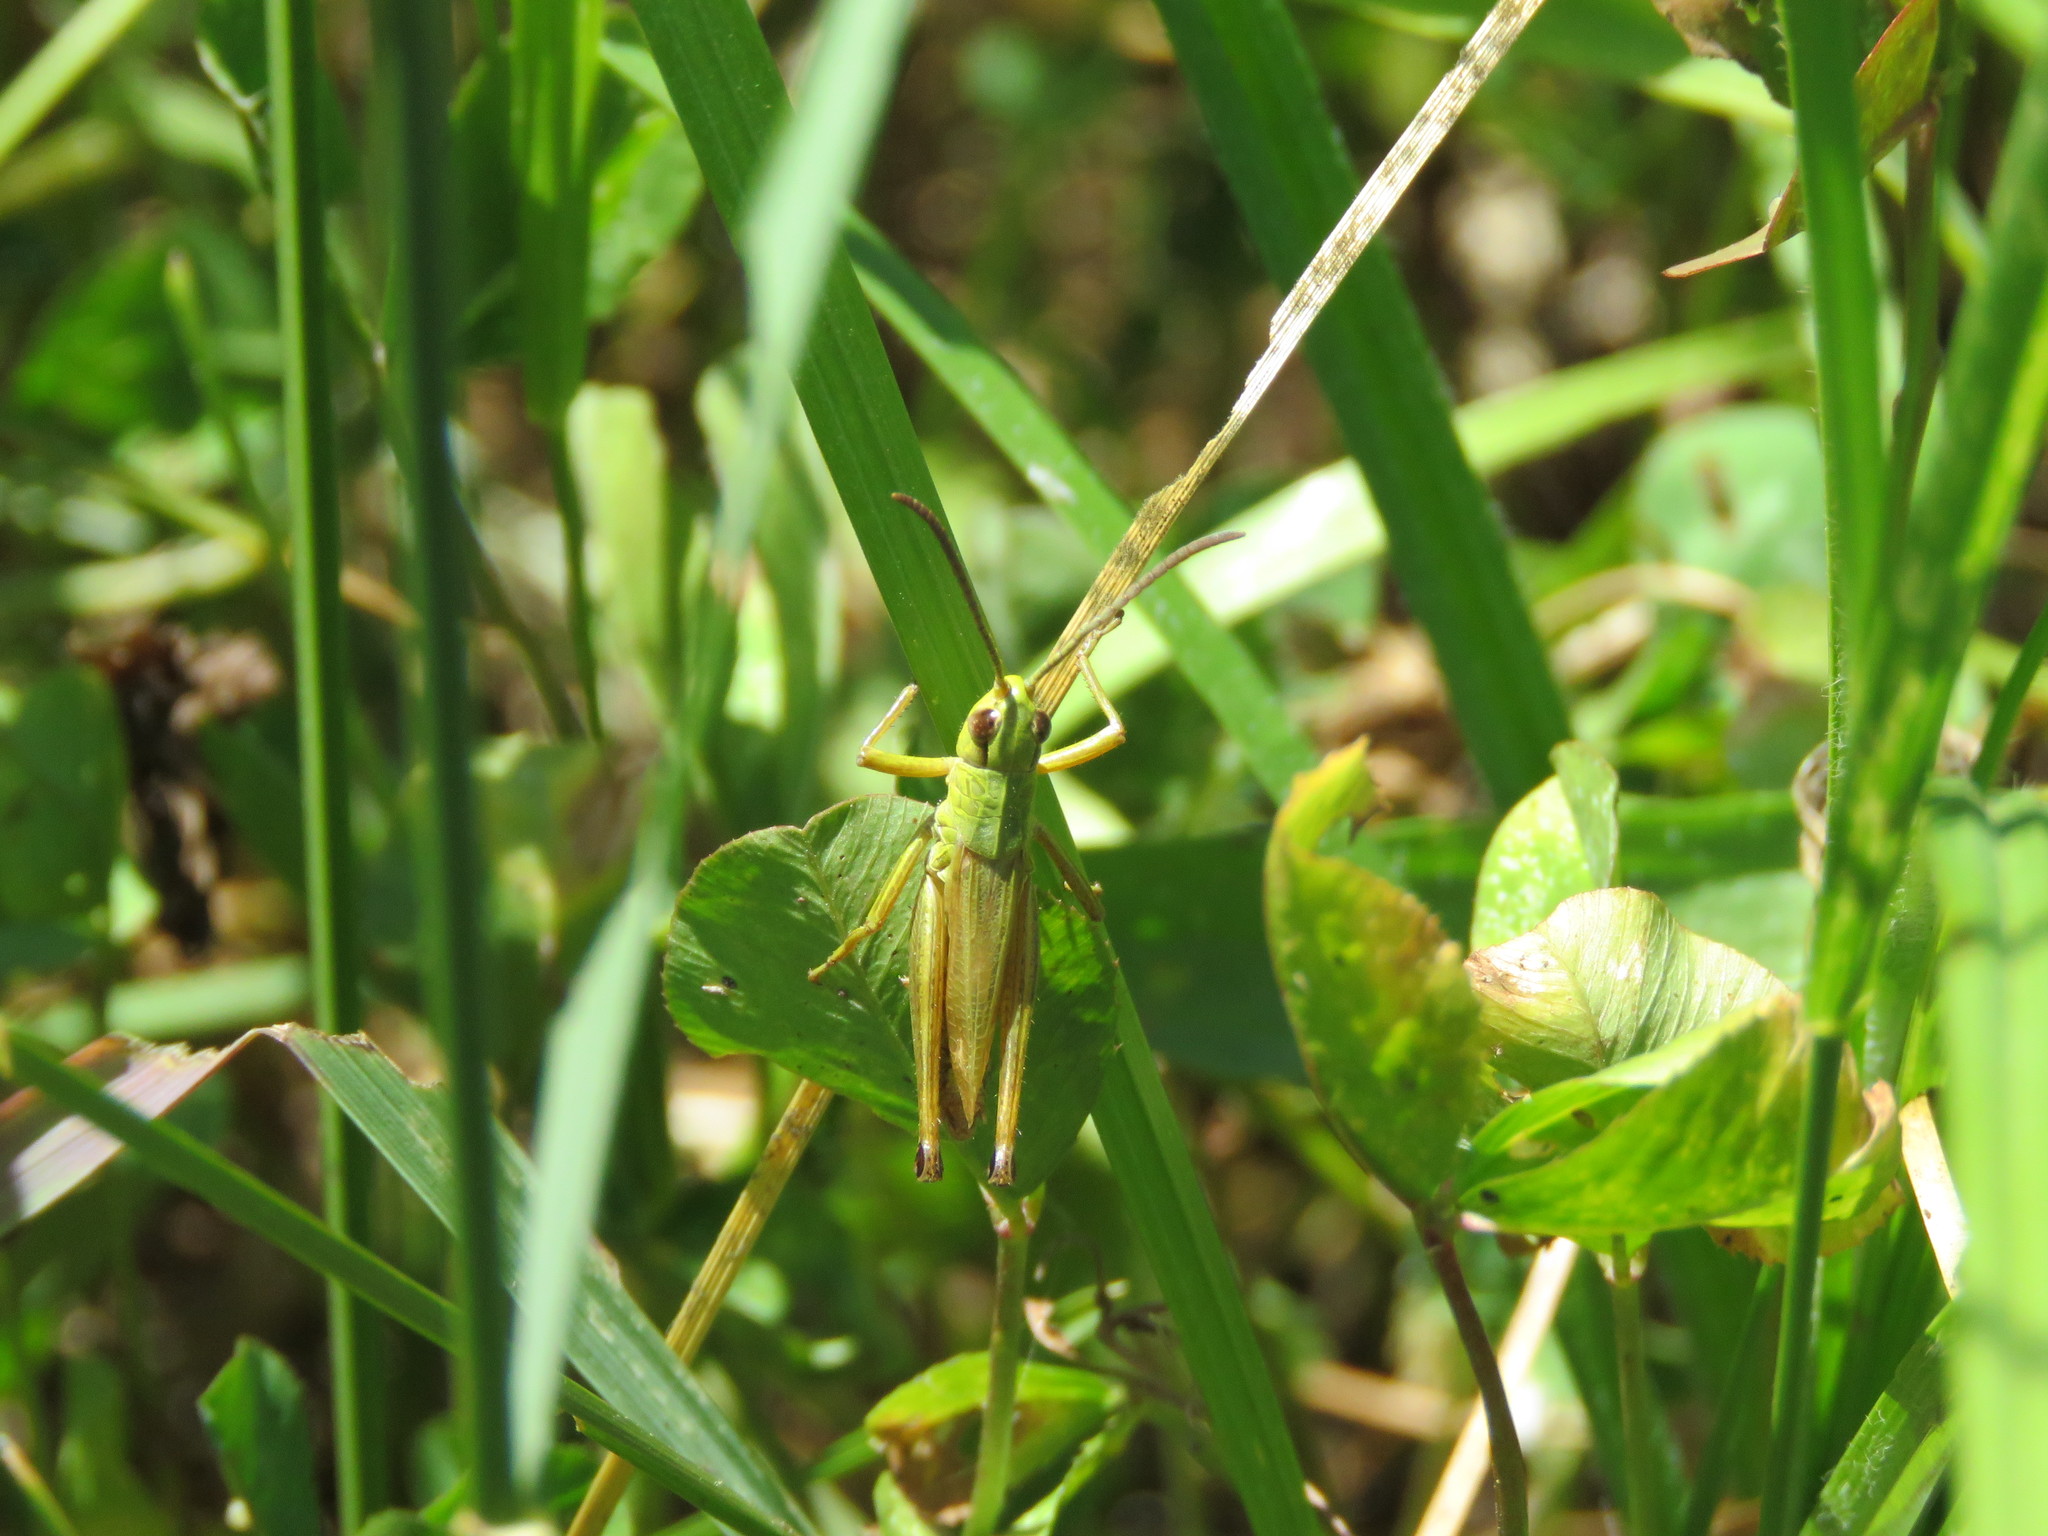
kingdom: Animalia
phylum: Arthropoda
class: Insecta
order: Orthoptera
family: Acrididae
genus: Pseudochorthippus
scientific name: Pseudochorthippus parallelus
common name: Meadow grasshopper
